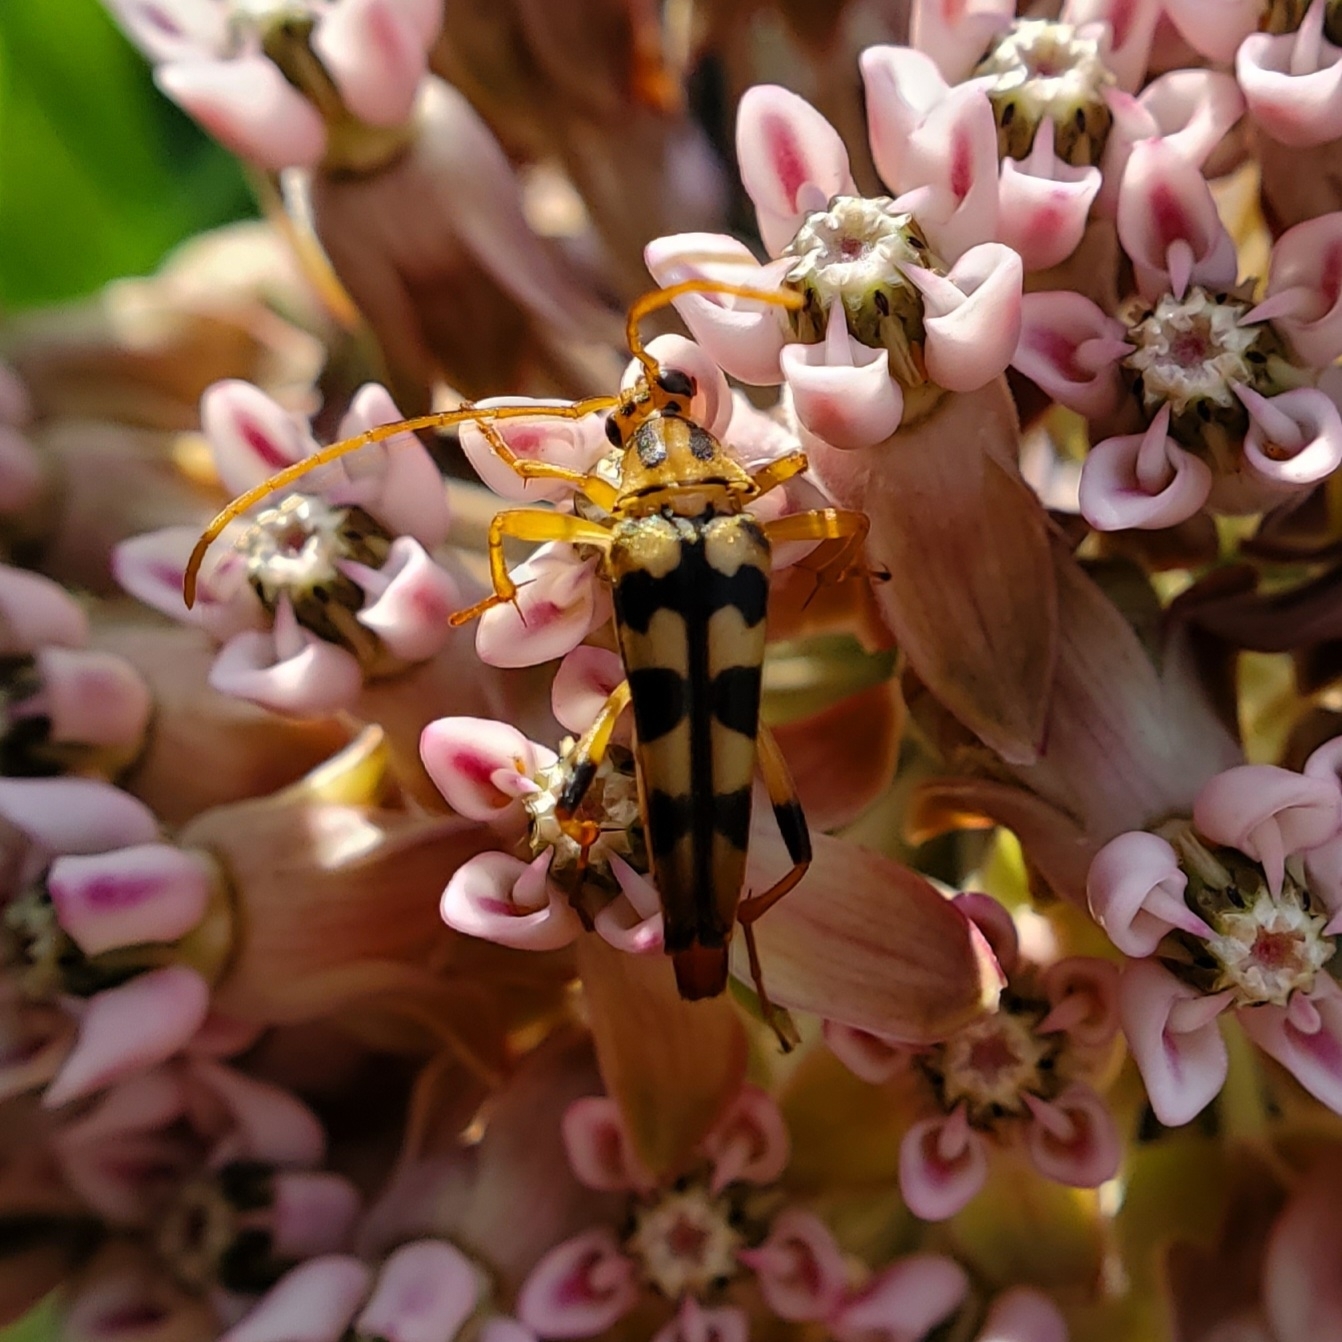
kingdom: Animalia
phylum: Arthropoda
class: Insecta
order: Coleoptera
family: Cerambycidae
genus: Strangalia
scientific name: Strangalia luteicornis
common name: Yellow-horned flower longhorn beetle
